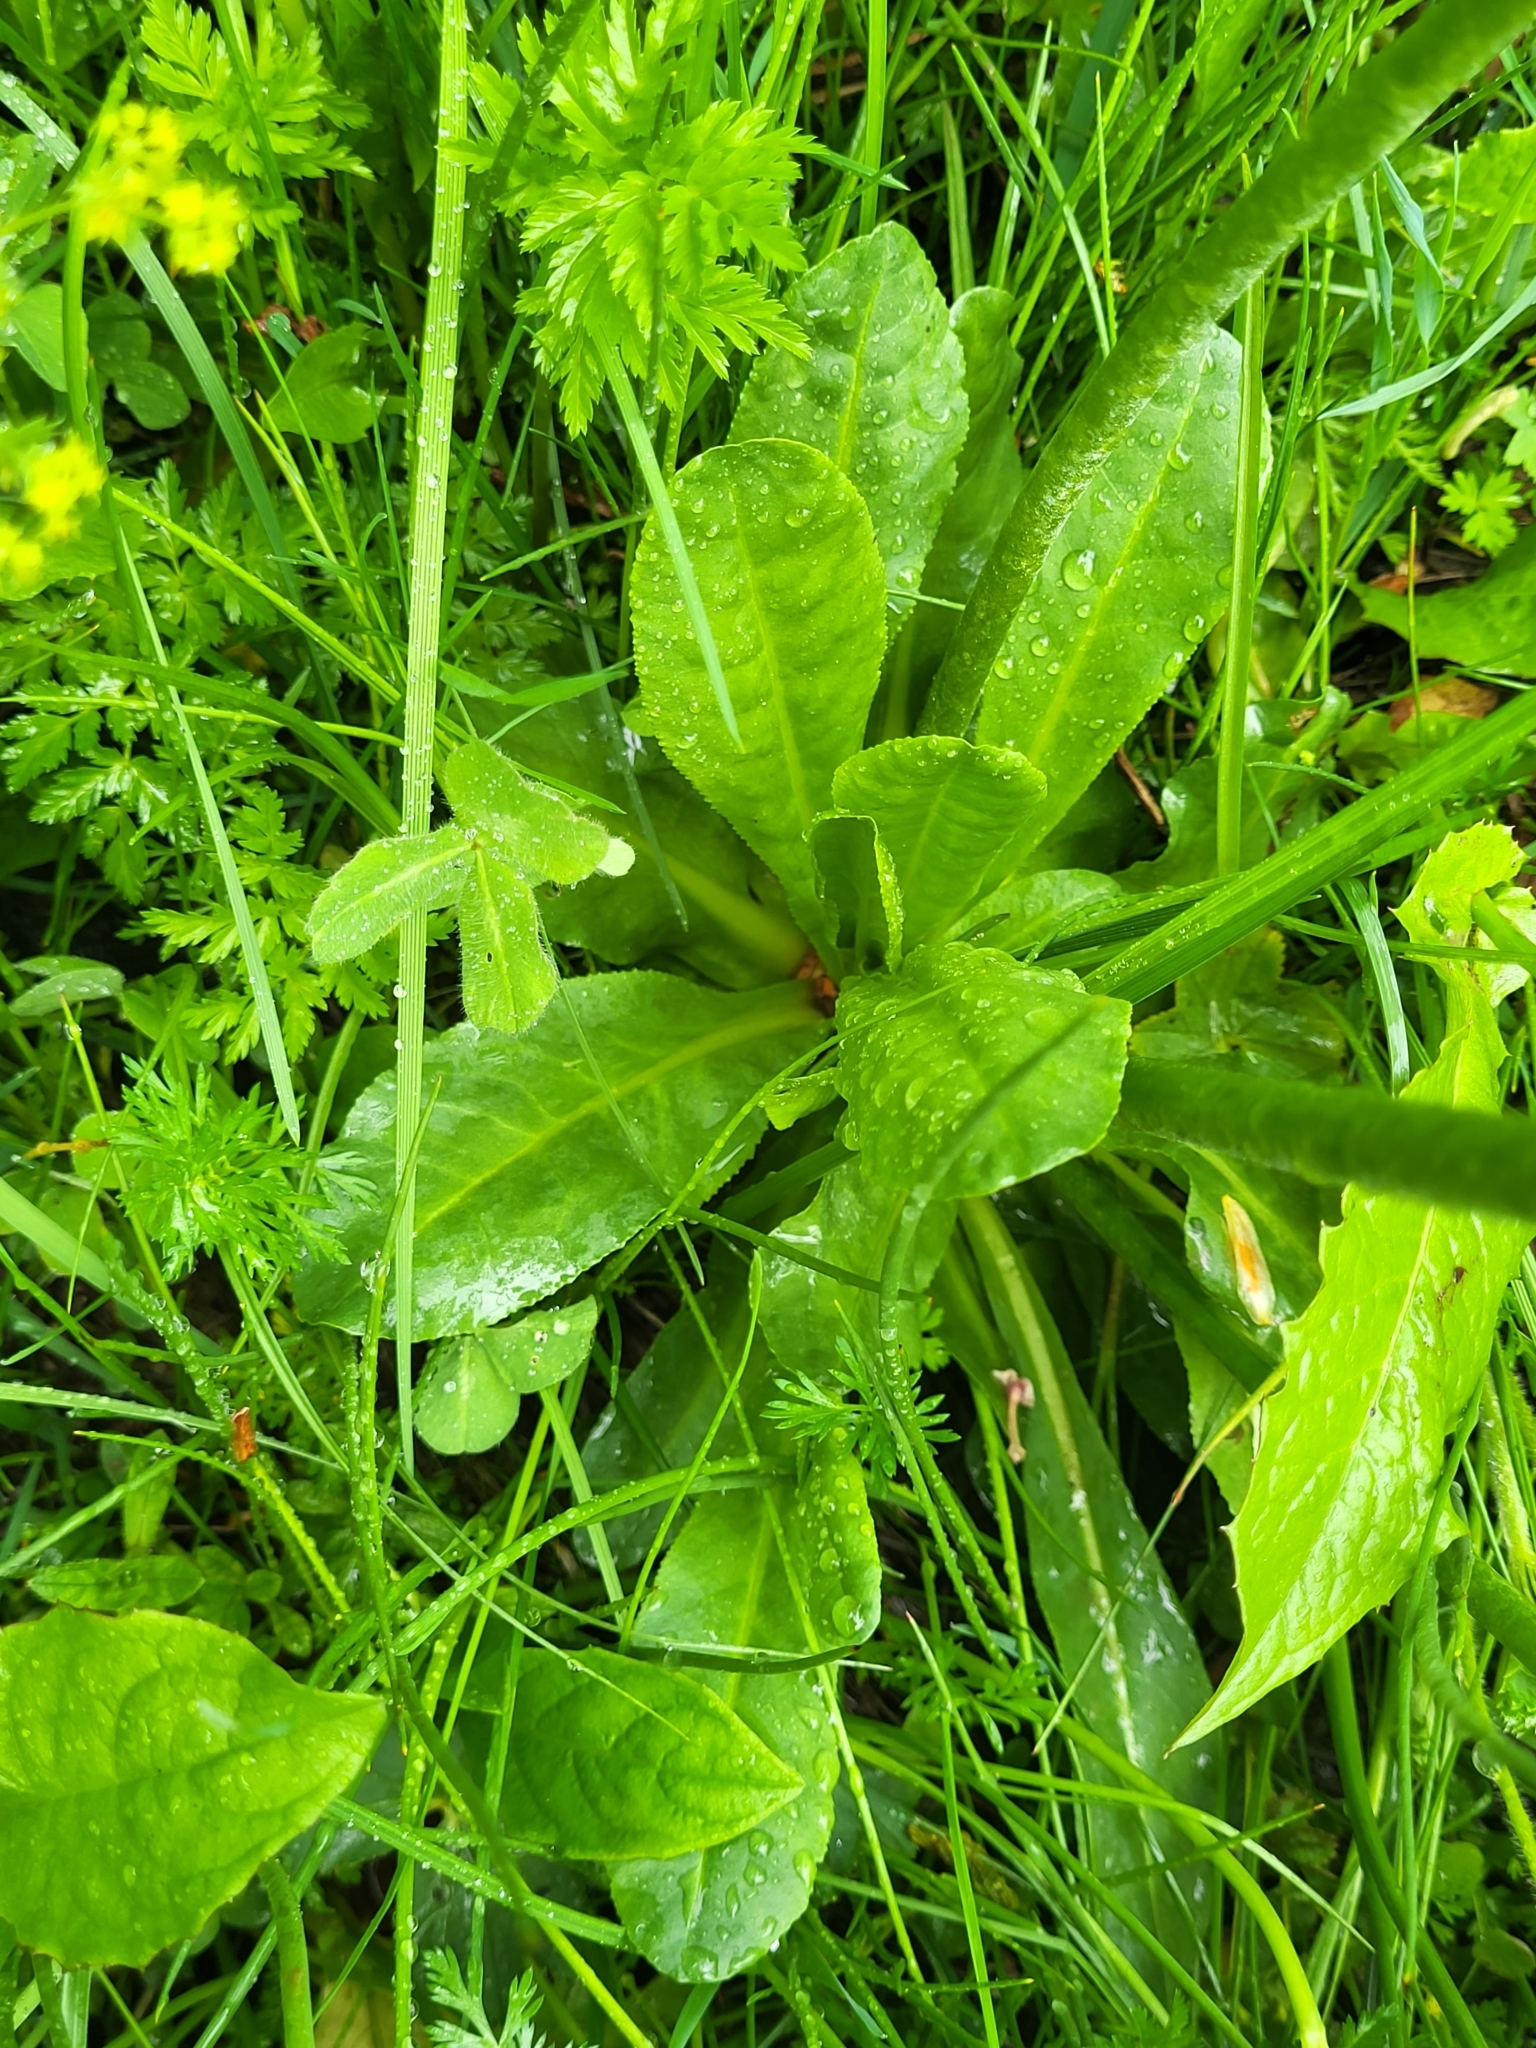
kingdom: Plantae
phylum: Tracheophyta
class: Magnoliopsida
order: Ericales
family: Primulaceae
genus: Primula
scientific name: Primula auriculata
